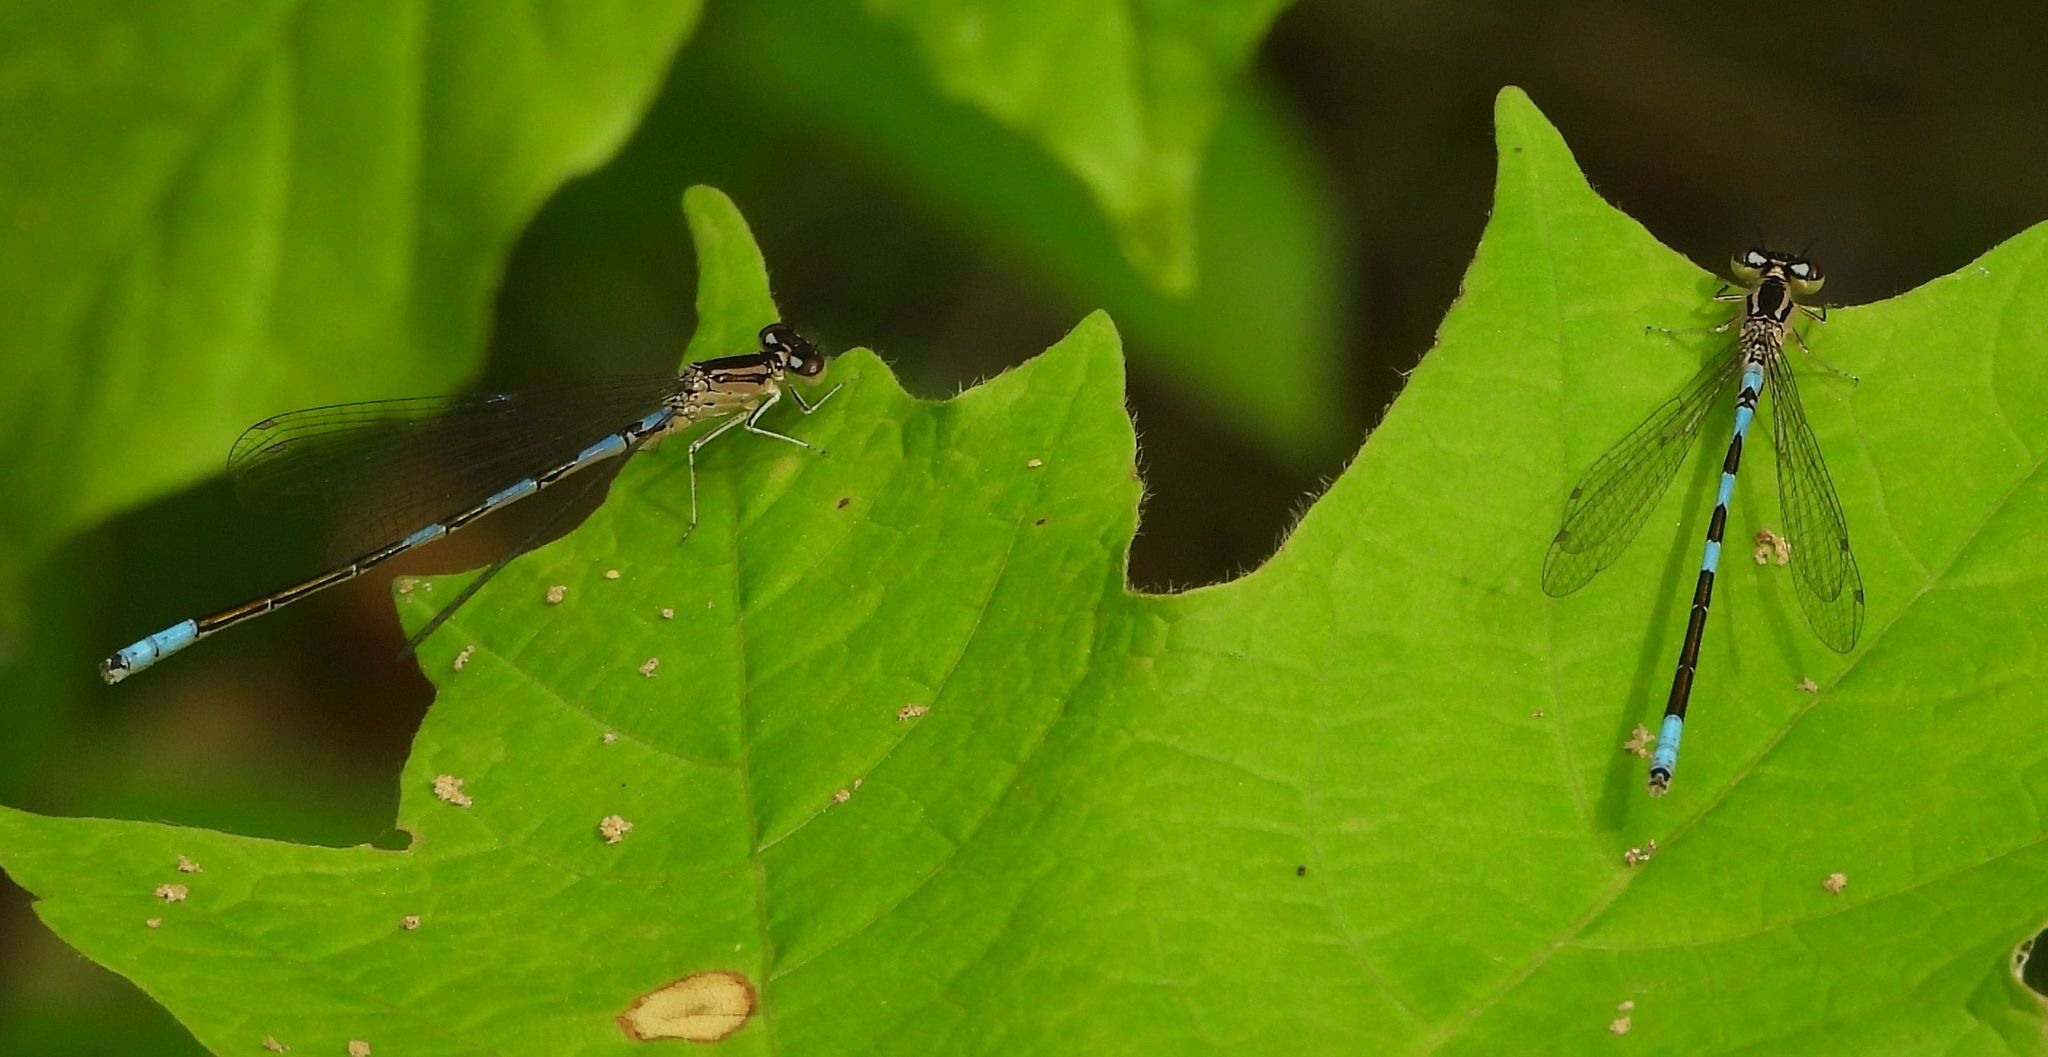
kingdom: Animalia
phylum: Arthropoda
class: Insecta
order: Odonata
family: Coenagrionidae
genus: Coenagrion
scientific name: Coenagrion resolutum
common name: Taiga bluet
